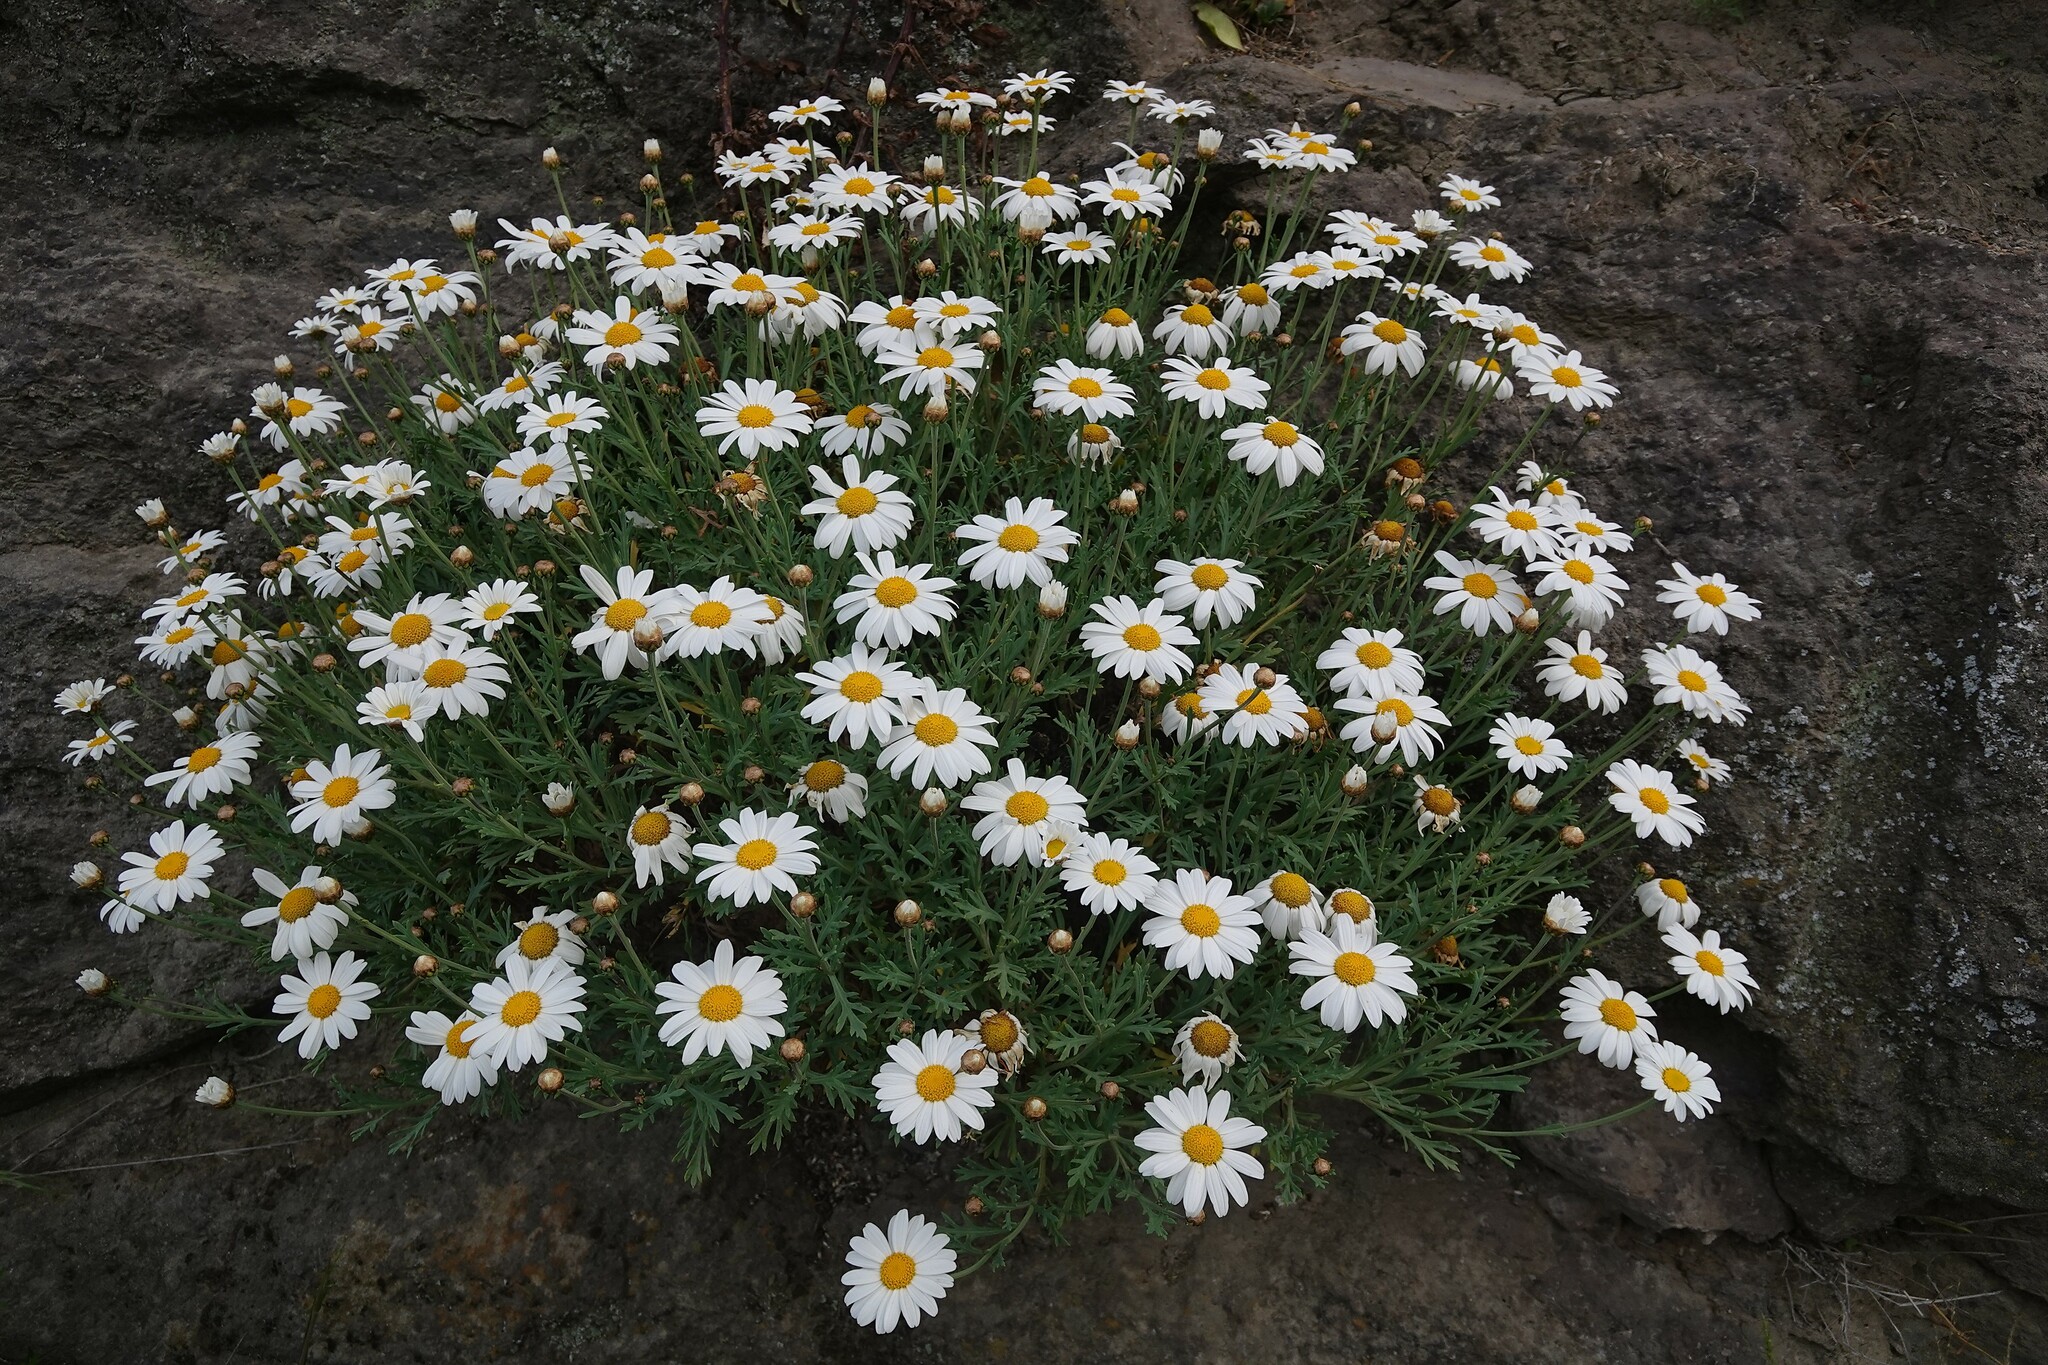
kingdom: Plantae
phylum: Tracheophyta
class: Magnoliopsida
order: Asterales
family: Asteraceae
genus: Argyranthemum
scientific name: Argyranthemum frutescens
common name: Paris daisy
